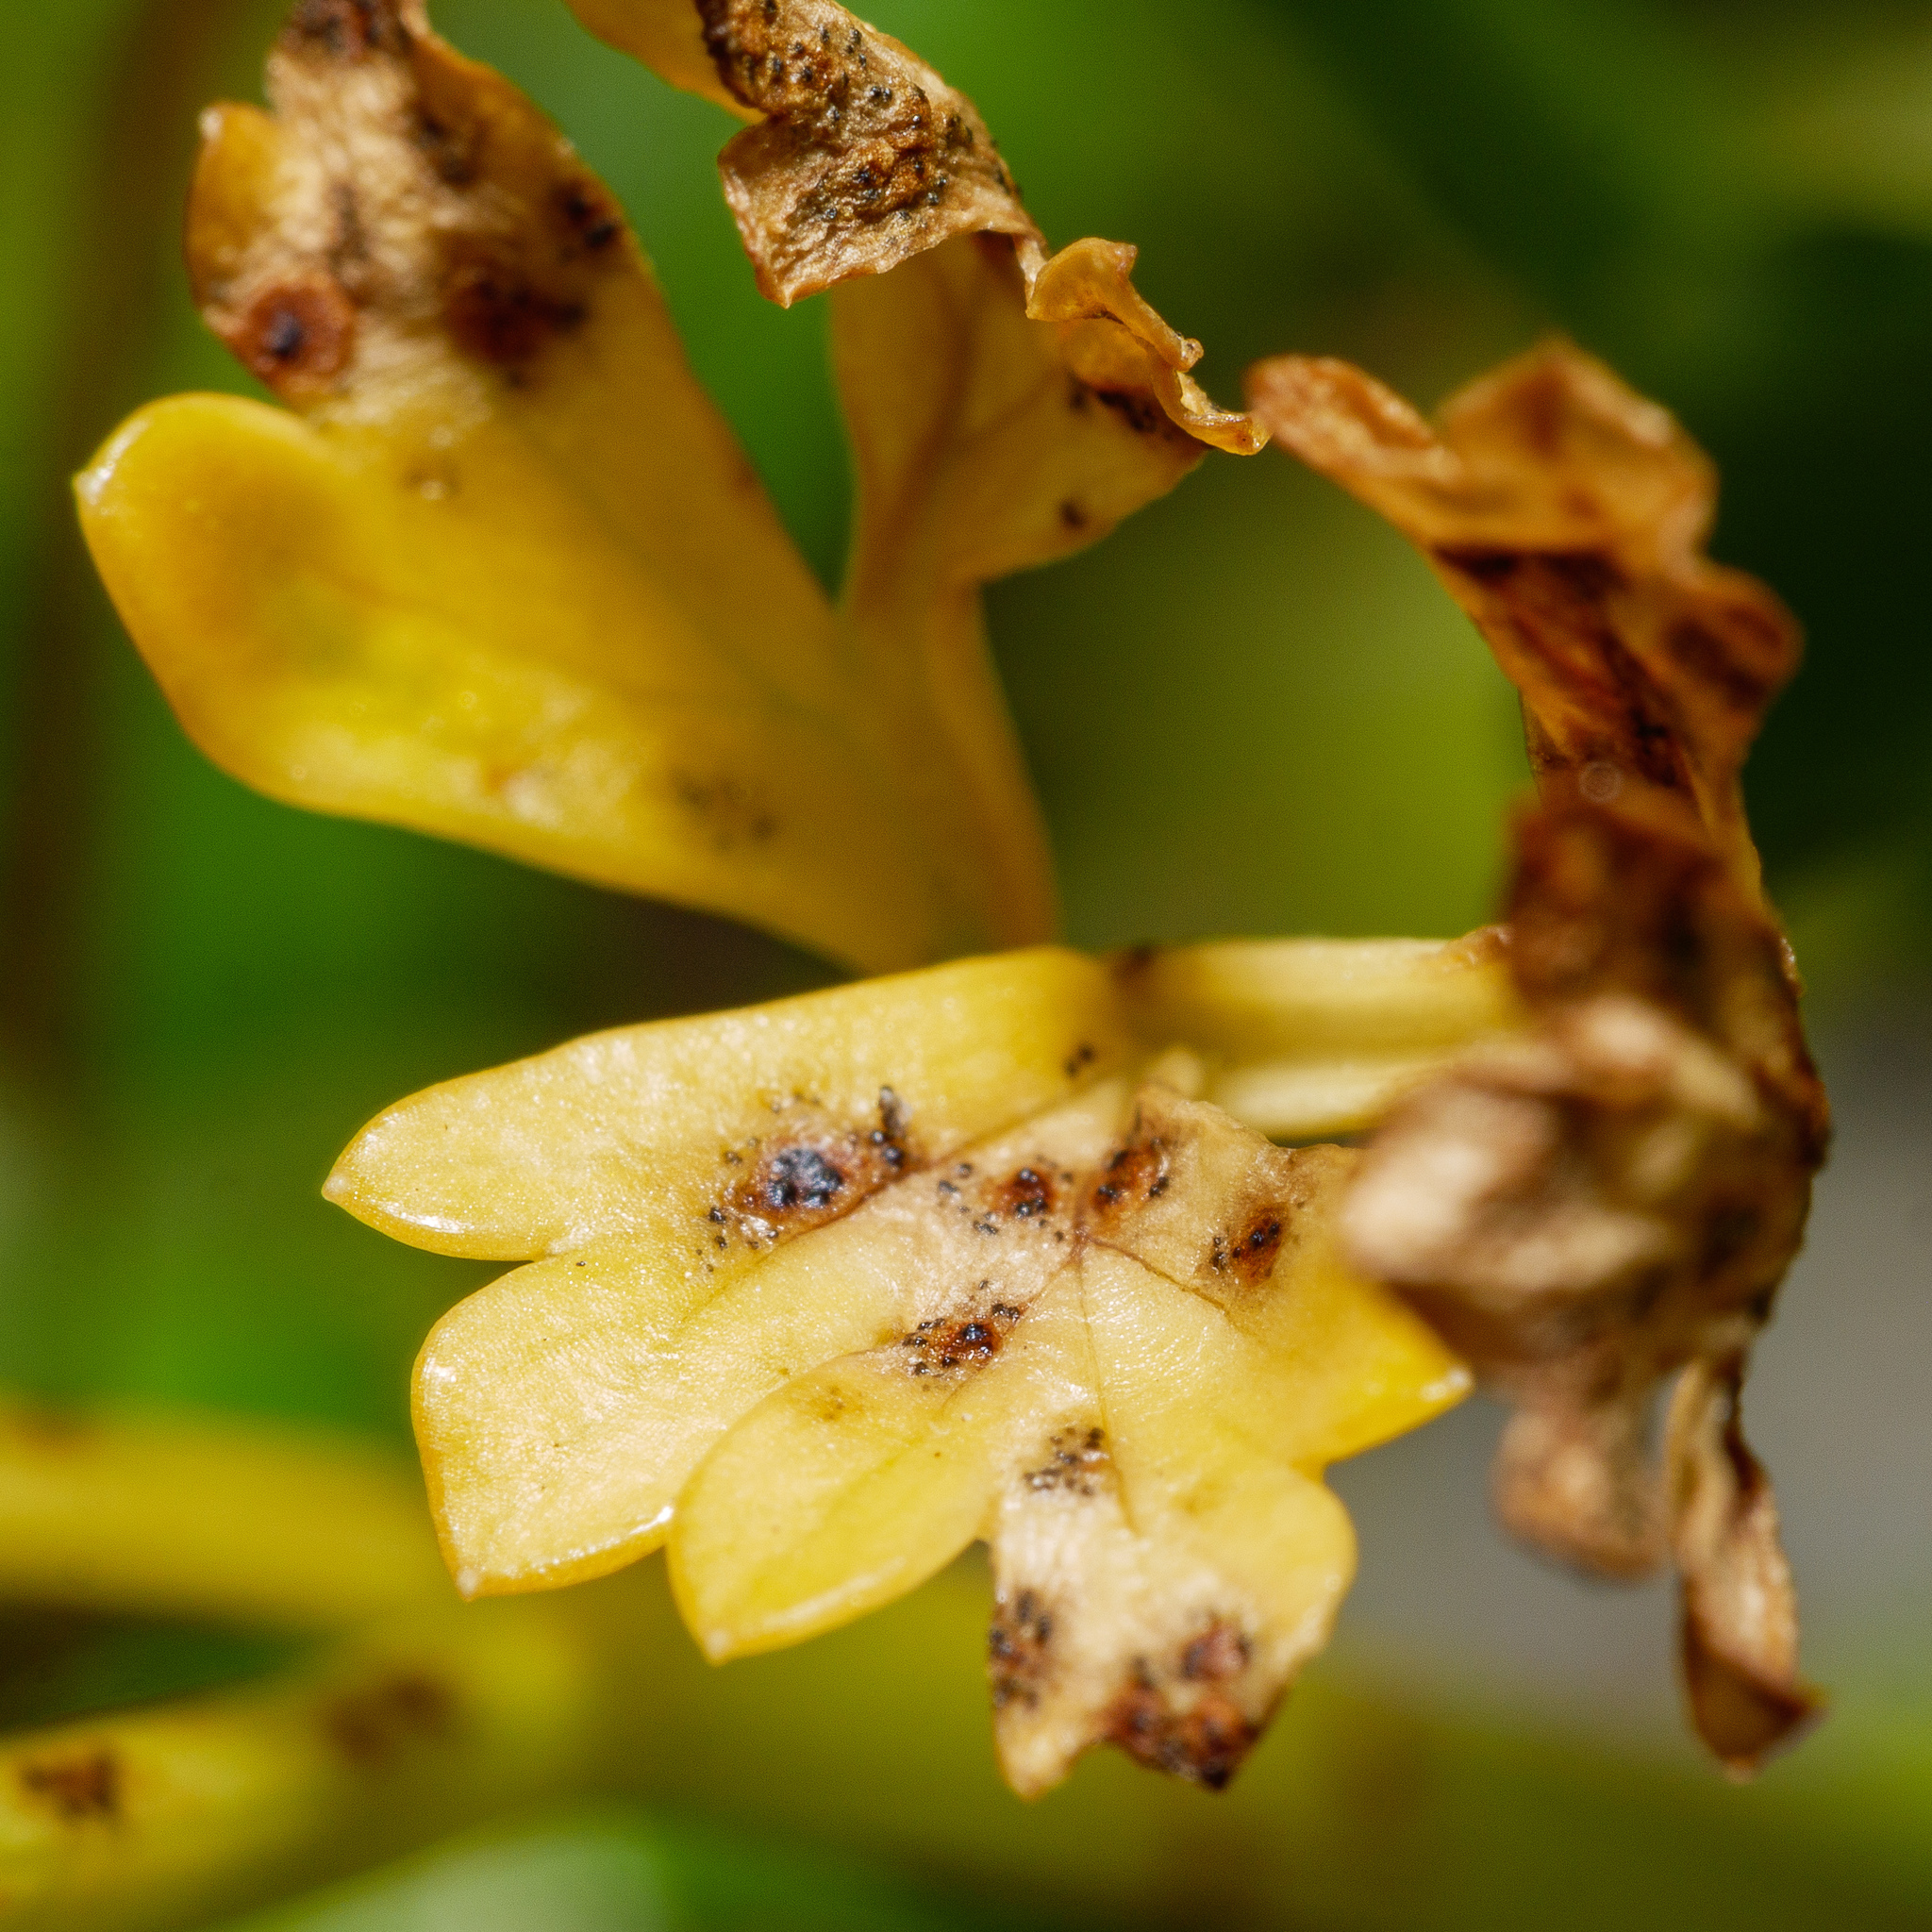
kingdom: Fungi
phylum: Ascomycota
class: Dothideomycetes
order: Mycosphaerellales
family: Mycosphaerellaceae
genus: Septoria
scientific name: Septoria apiicola
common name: Celery late blight
